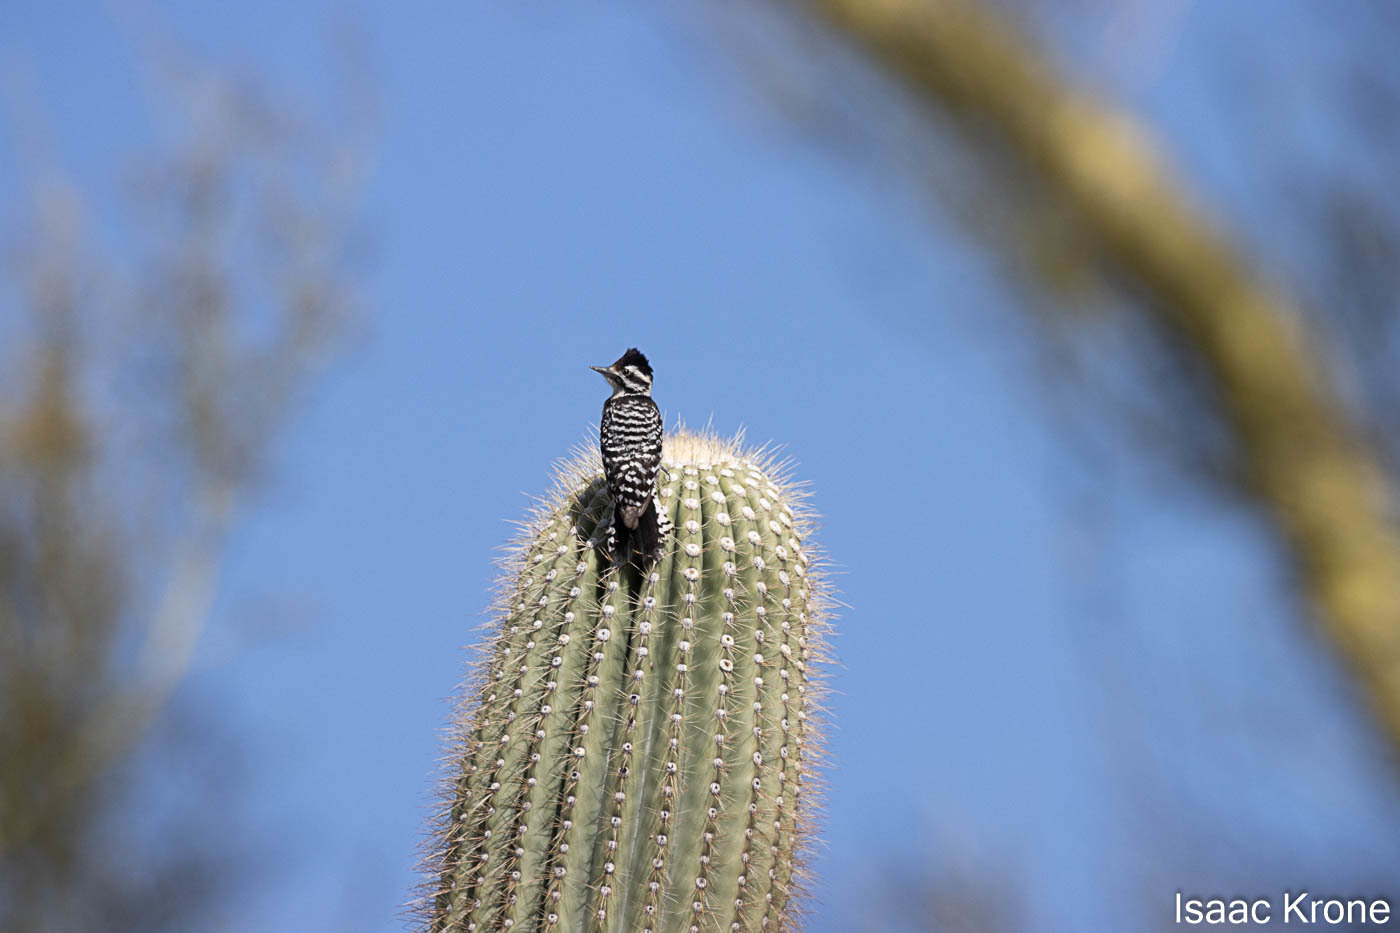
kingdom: Animalia
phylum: Chordata
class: Aves
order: Piciformes
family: Picidae
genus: Dryobates
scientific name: Dryobates scalaris
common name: Ladder-backed woodpecker
